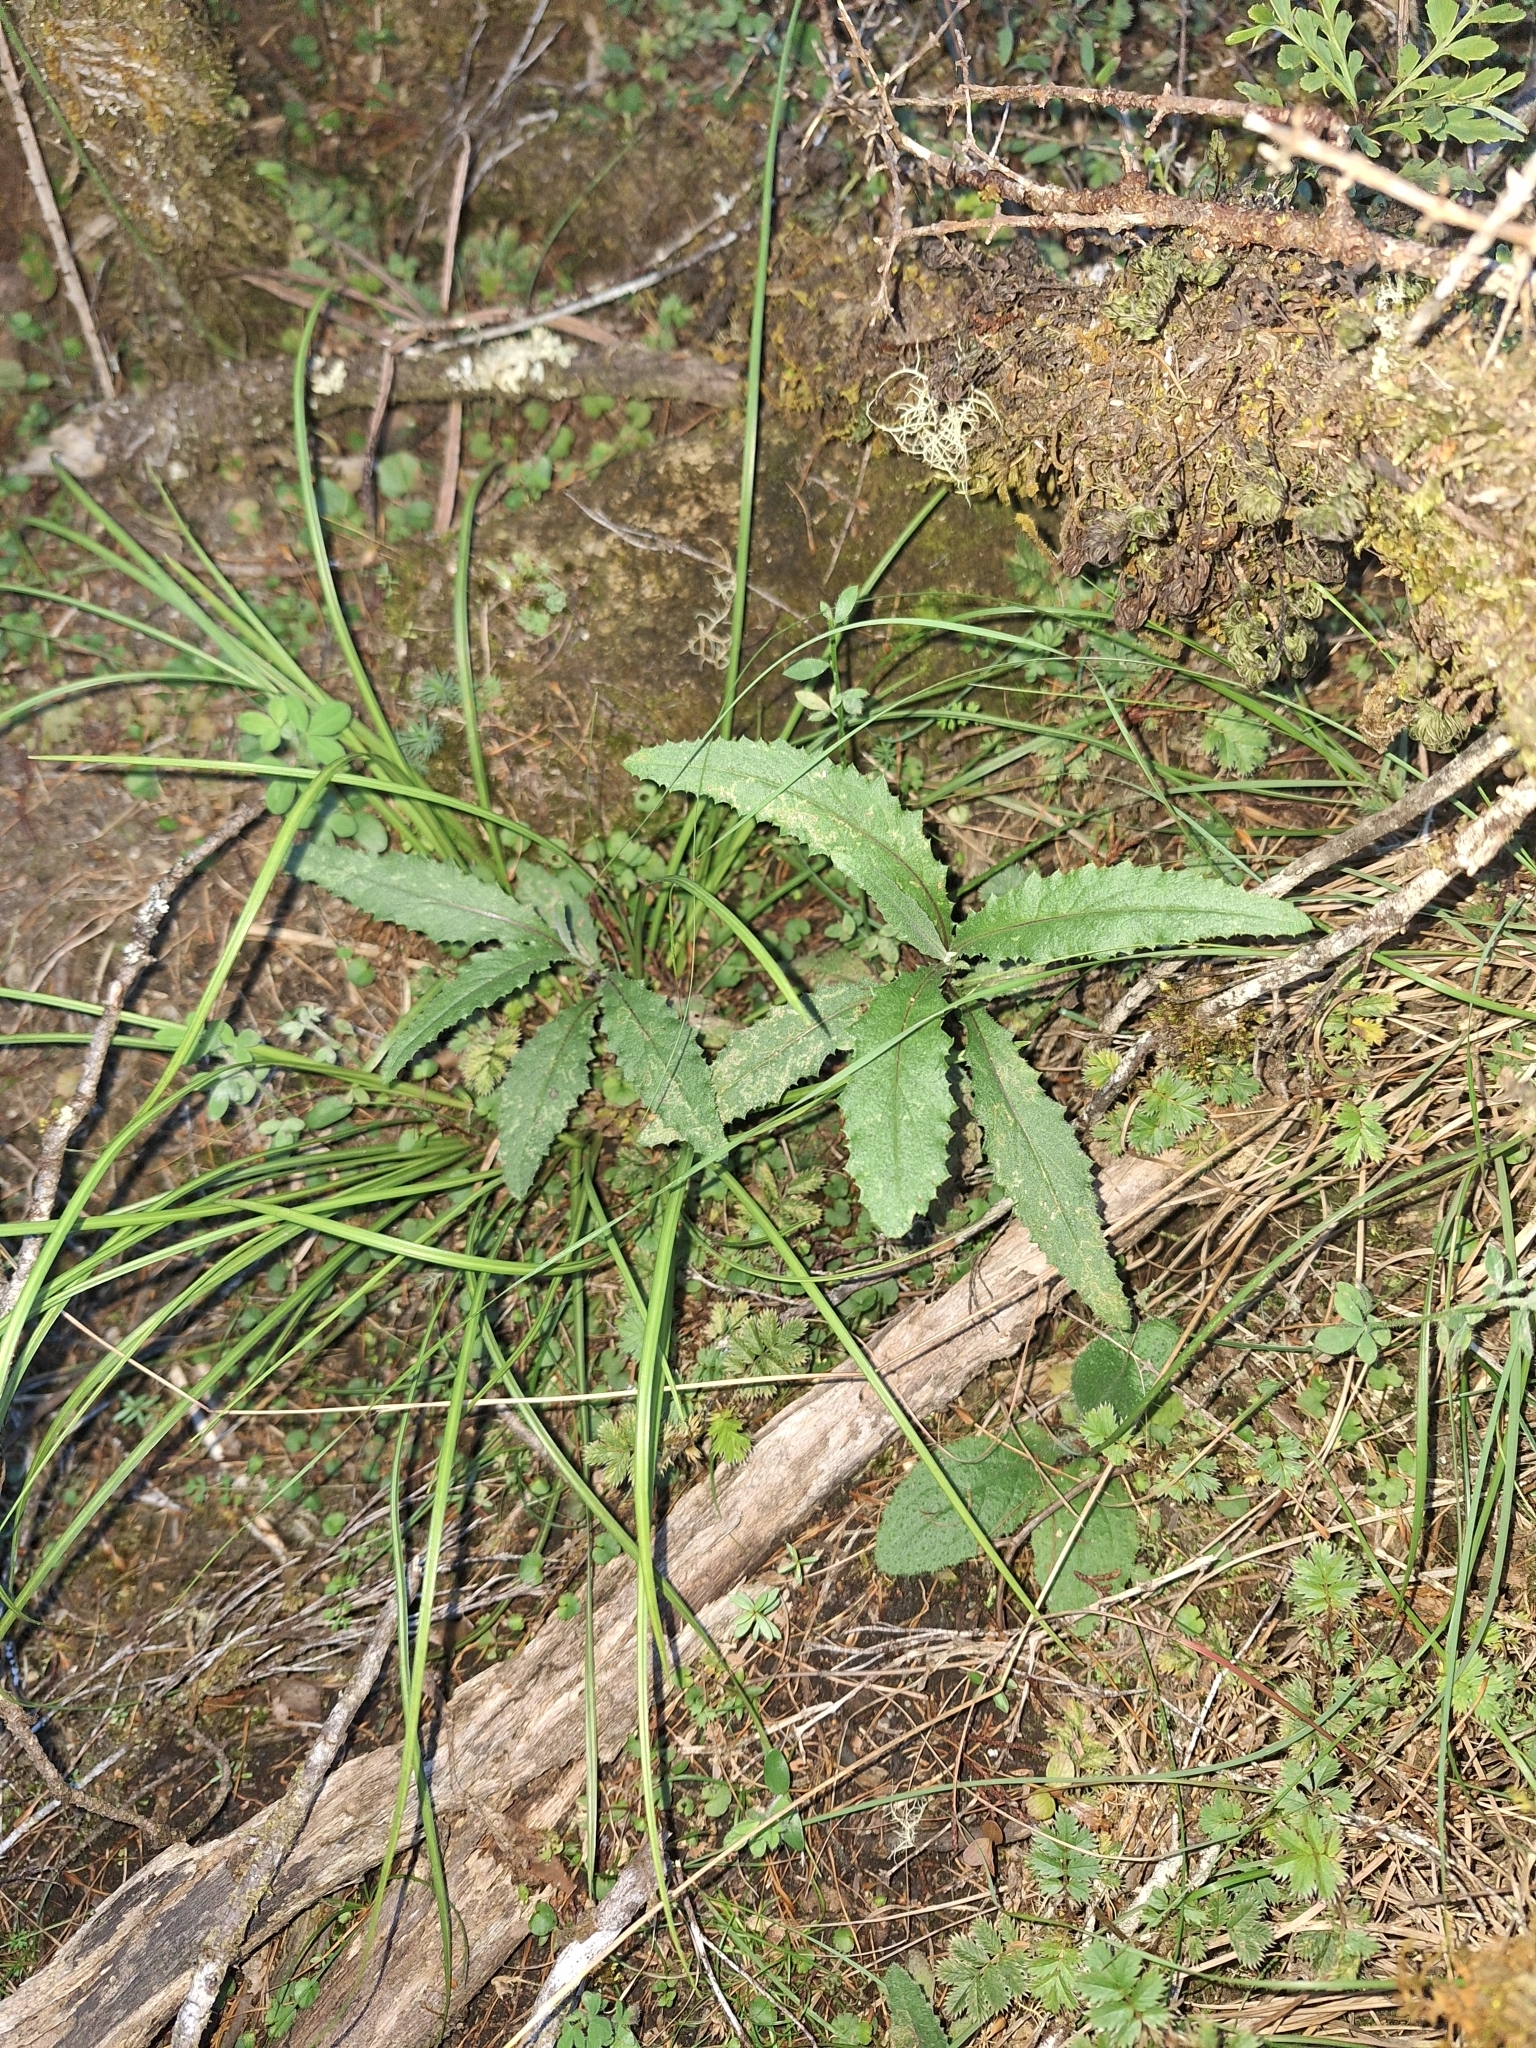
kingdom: Plantae
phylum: Tracheophyta
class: Magnoliopsida
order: Asterales
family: Asteraceae
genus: Senecio
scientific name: Senecio minimus
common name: Toothed fireweed
